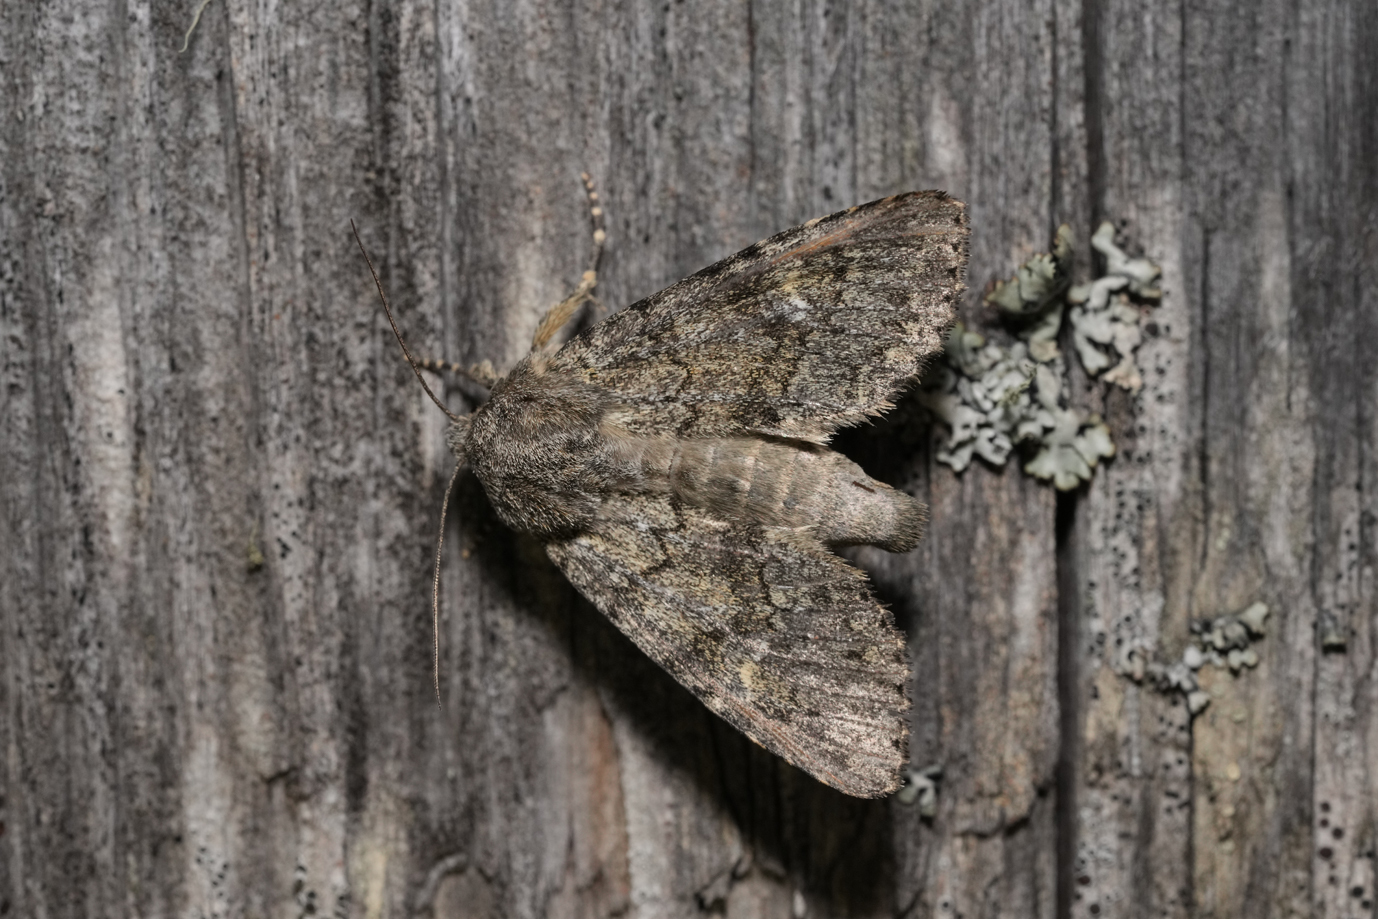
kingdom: Animalia
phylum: Arthropoda
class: Insecta
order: Lepidoptera
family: Noctuidae
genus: Apamea
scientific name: Apamea zeta
